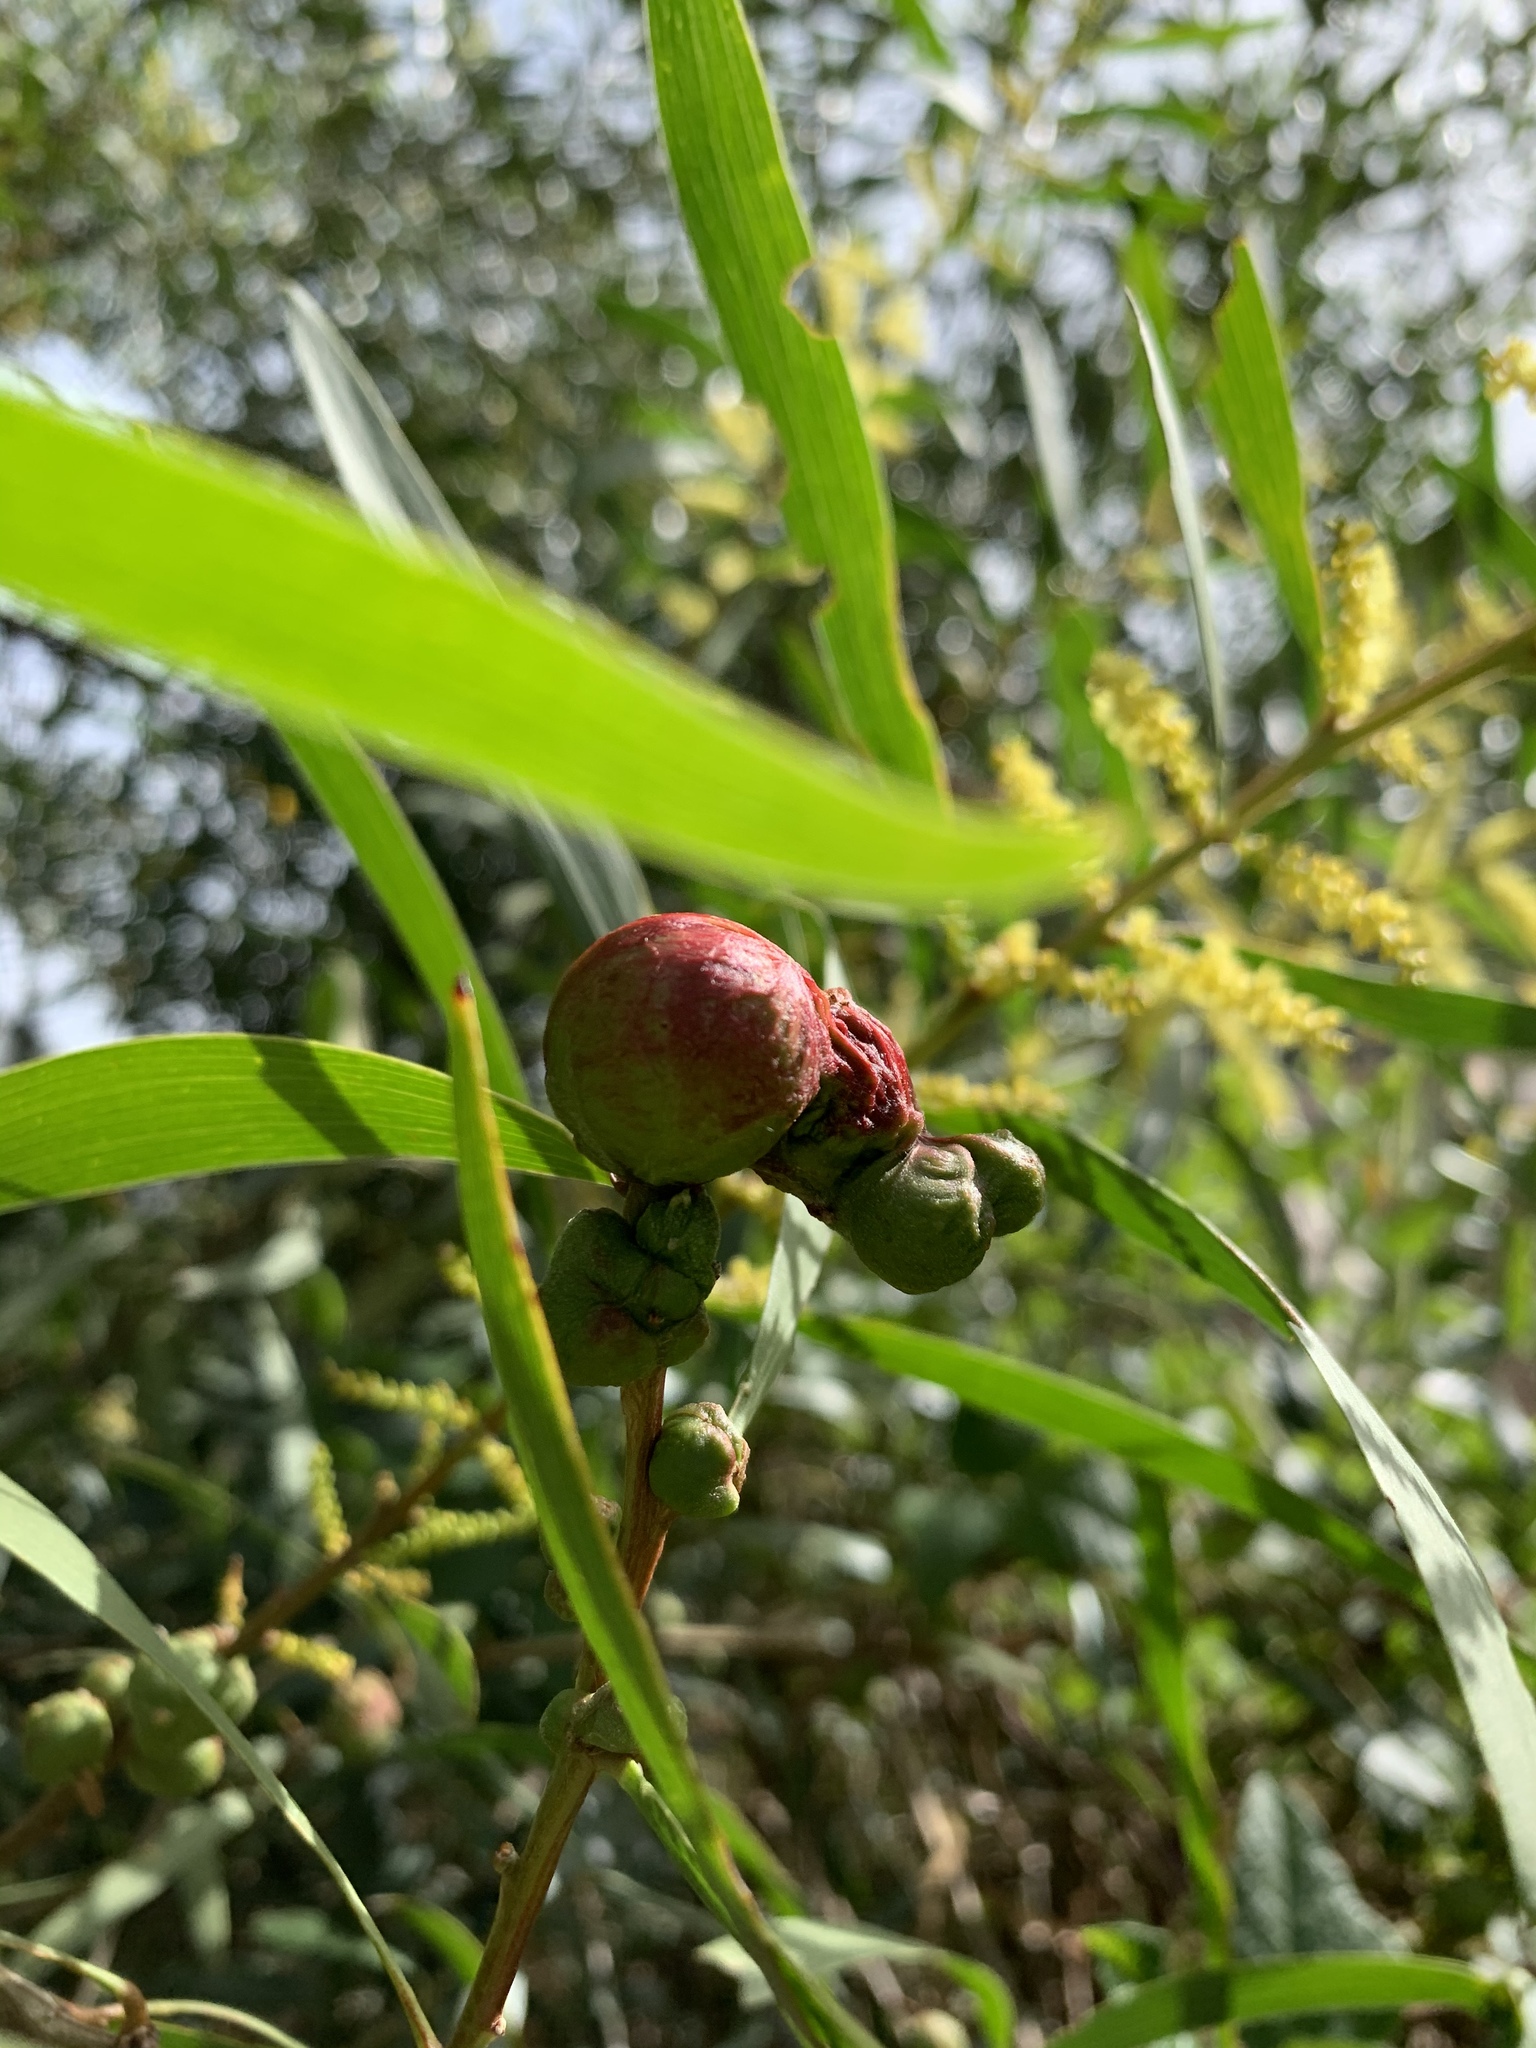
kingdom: Animalia
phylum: Arthropoda
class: Insecta
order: Hymenoptera
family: Pteromalidae
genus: Trichilogaster
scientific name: Trichilogaster acaciaelongifoliae
